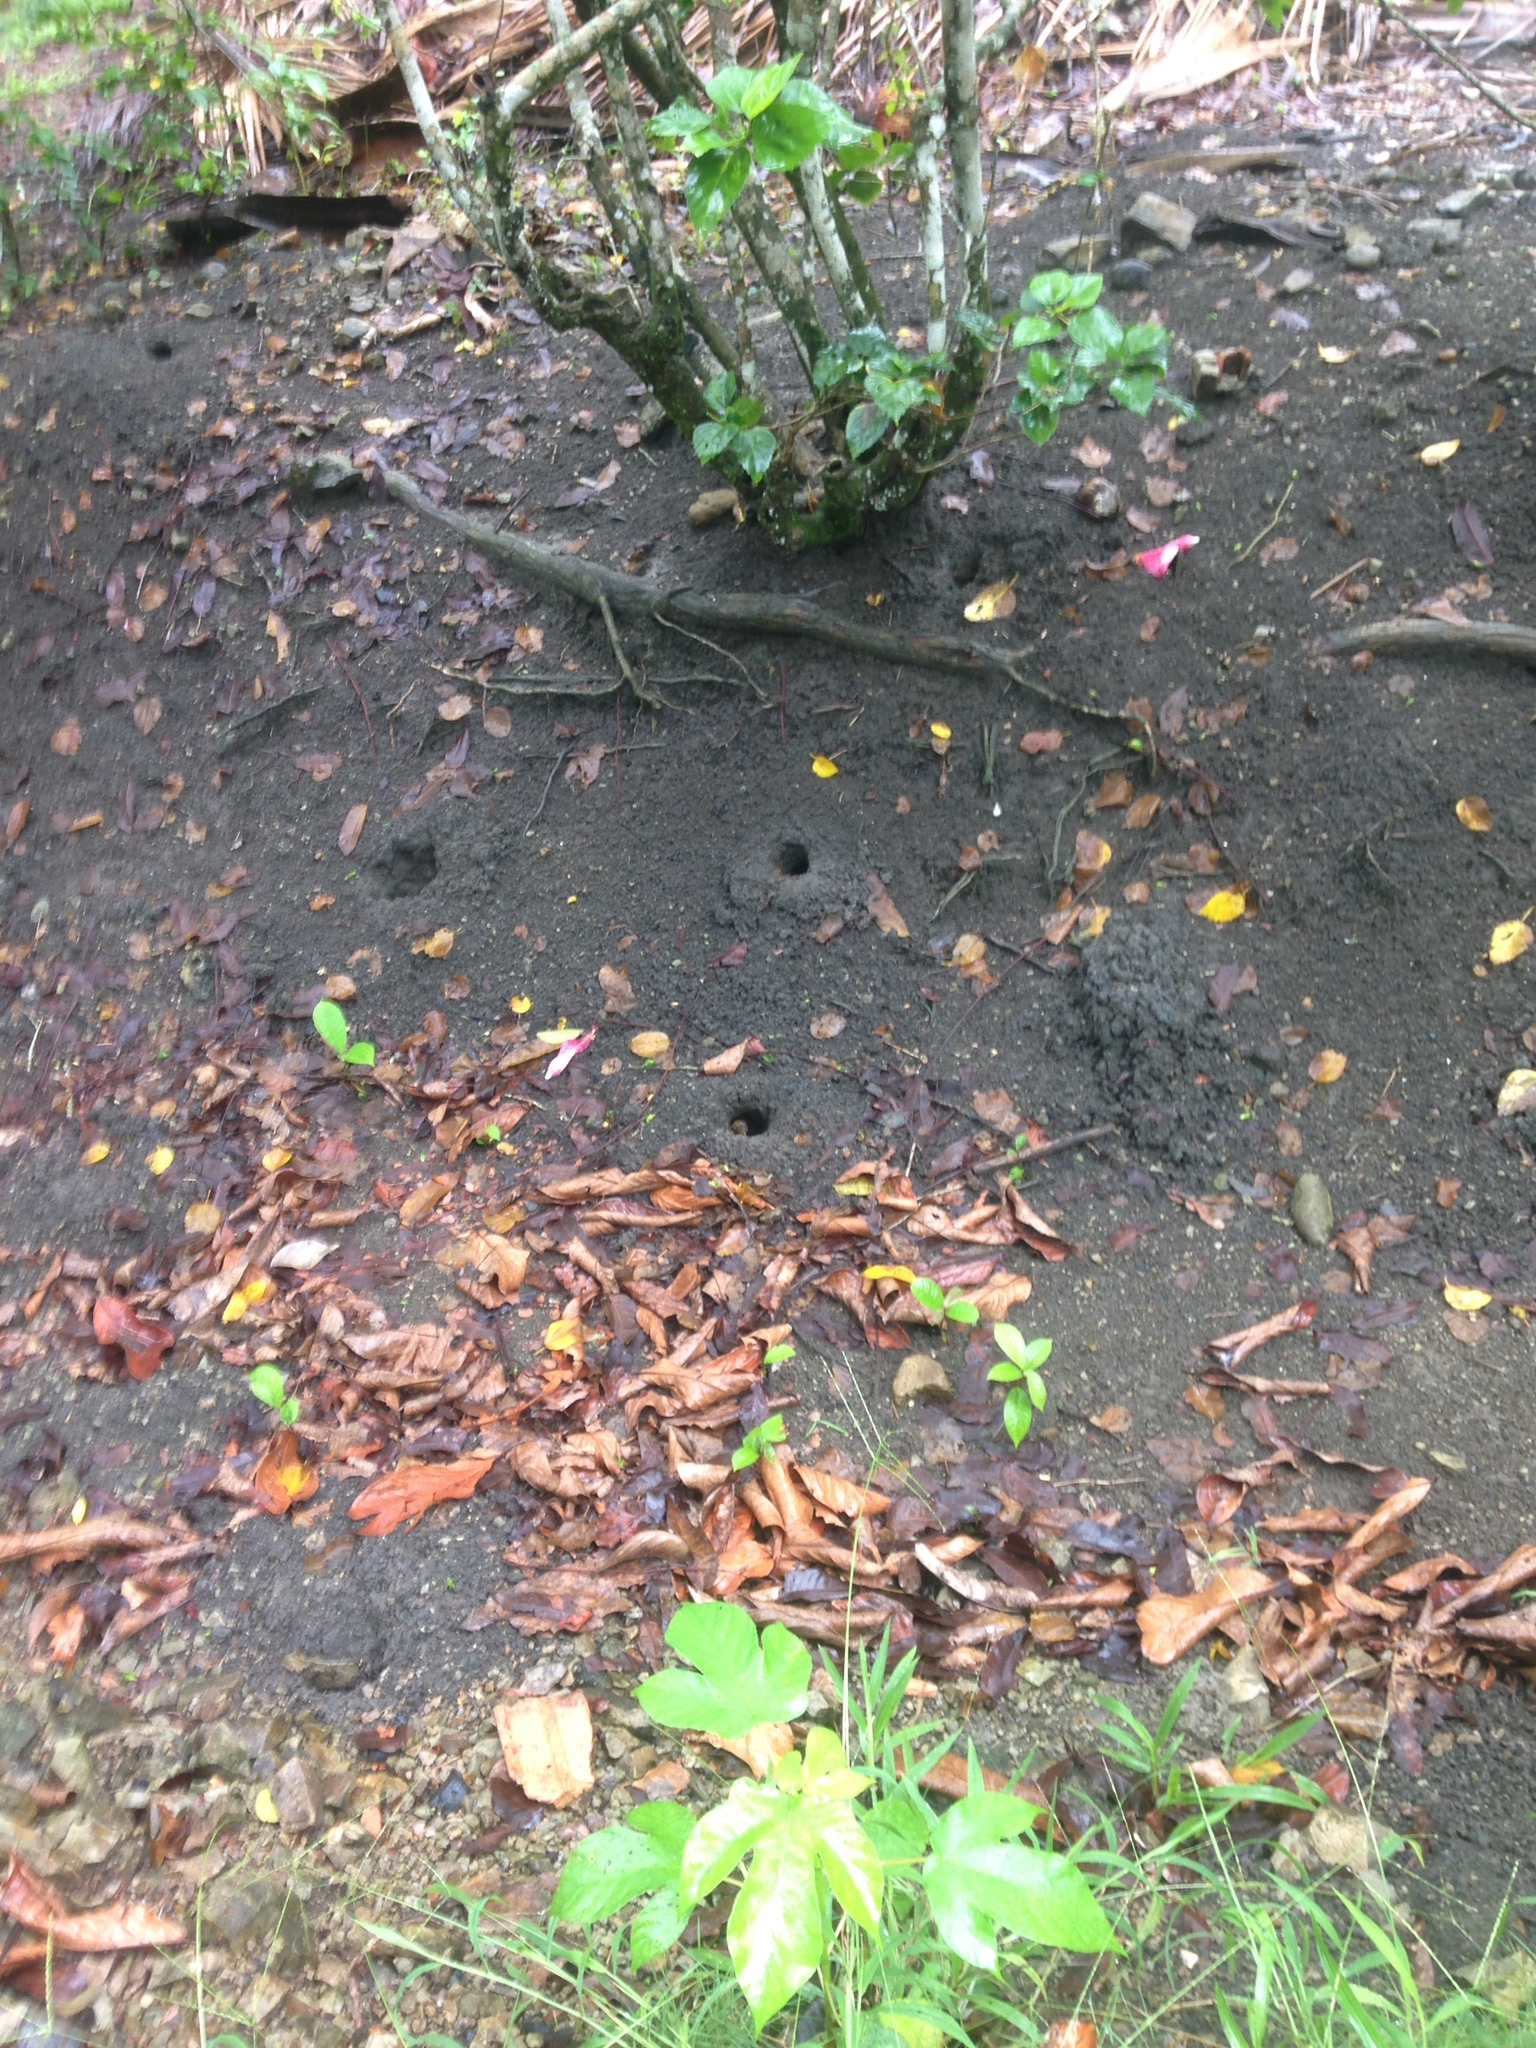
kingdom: Animalia
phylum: Arthropoda
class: Malacostraca
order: Decapoda
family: Gecarcinidae
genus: Cardisoma
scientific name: Cardisoma guanhumi
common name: Great land crab
